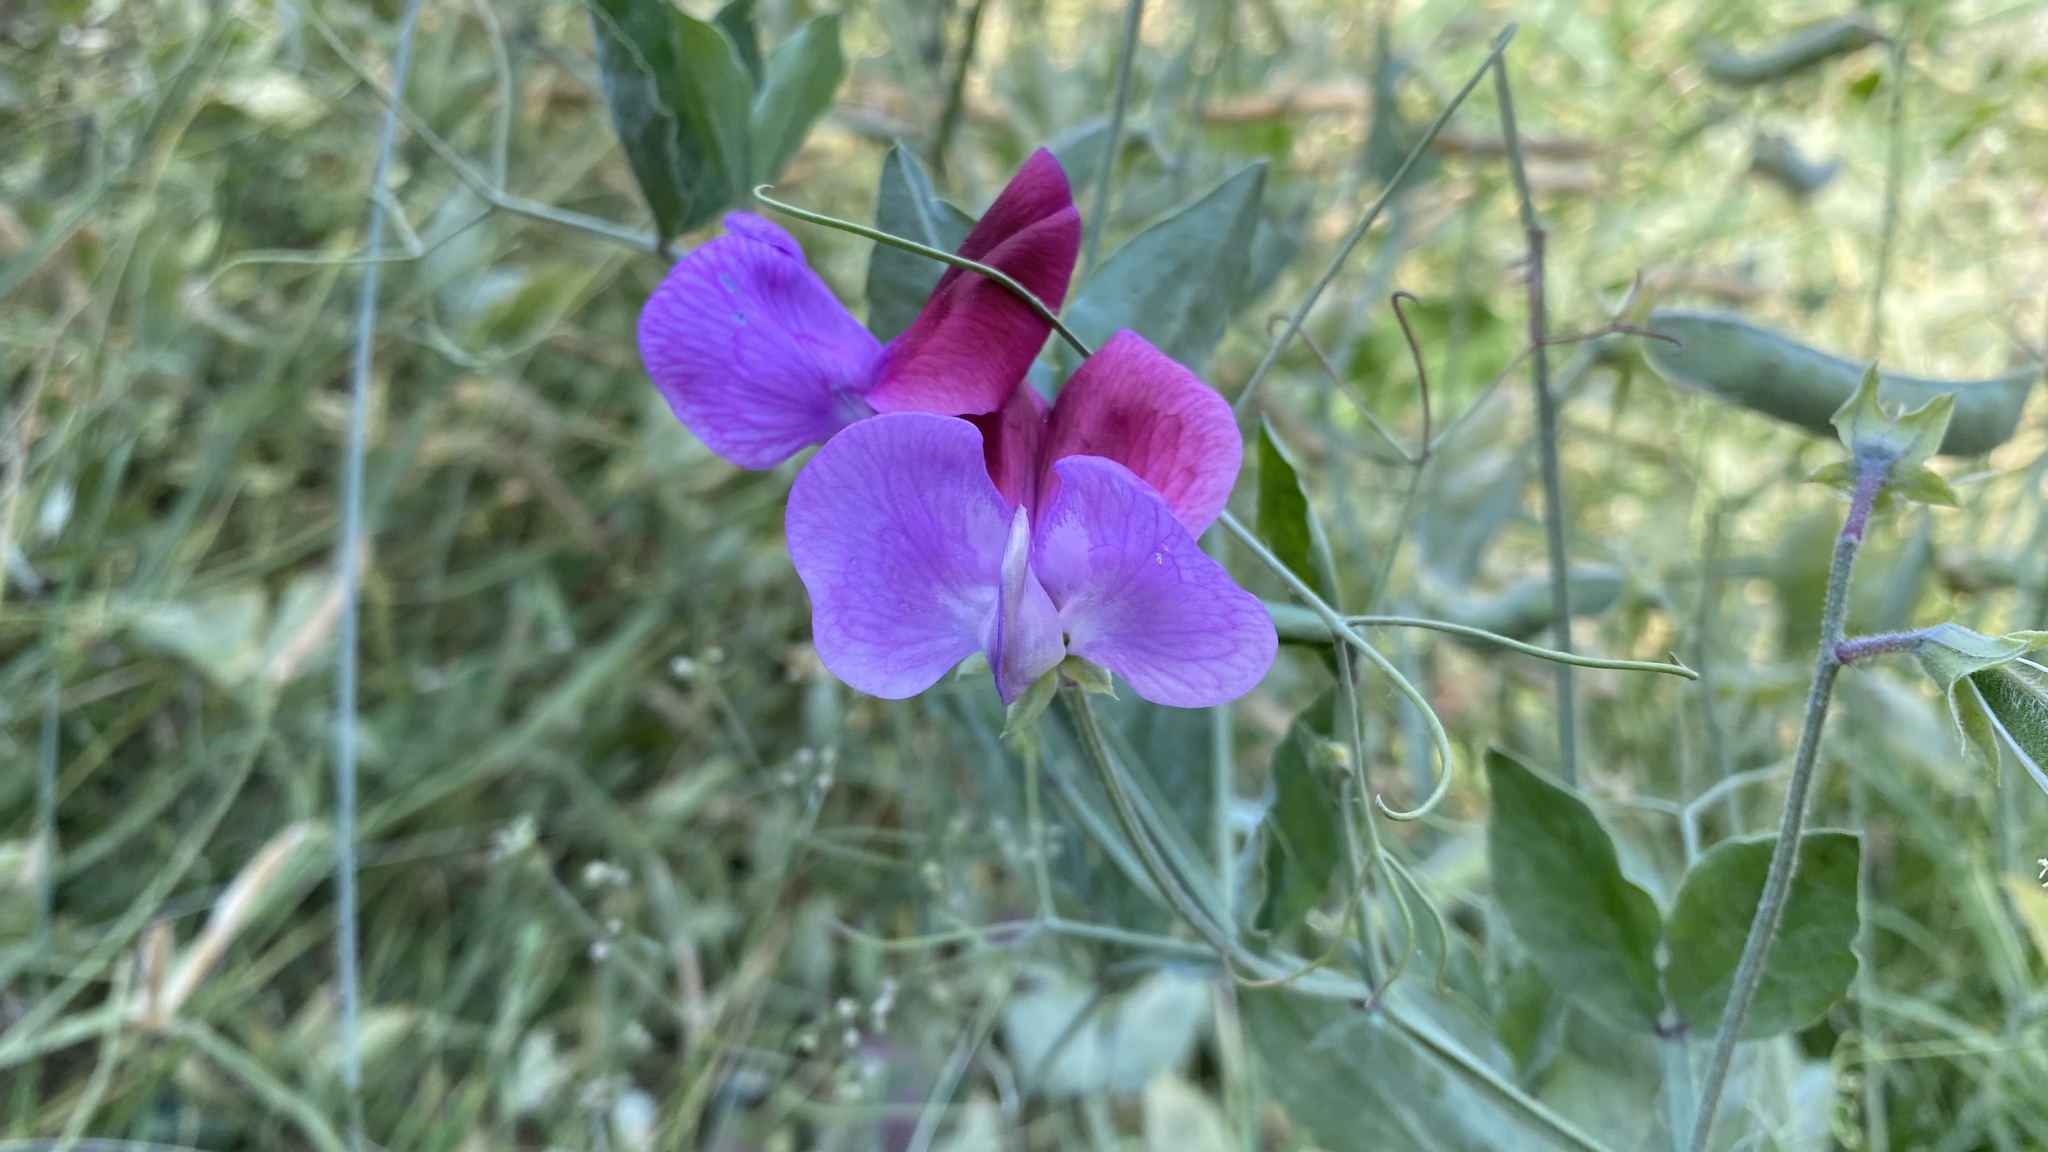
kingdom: Plantae
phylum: Tracheophyta
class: Magnoliopsida
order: Fabales
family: Fabaceae
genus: Lathyrus
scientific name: Lathyrus odoratus
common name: Sweet pea
